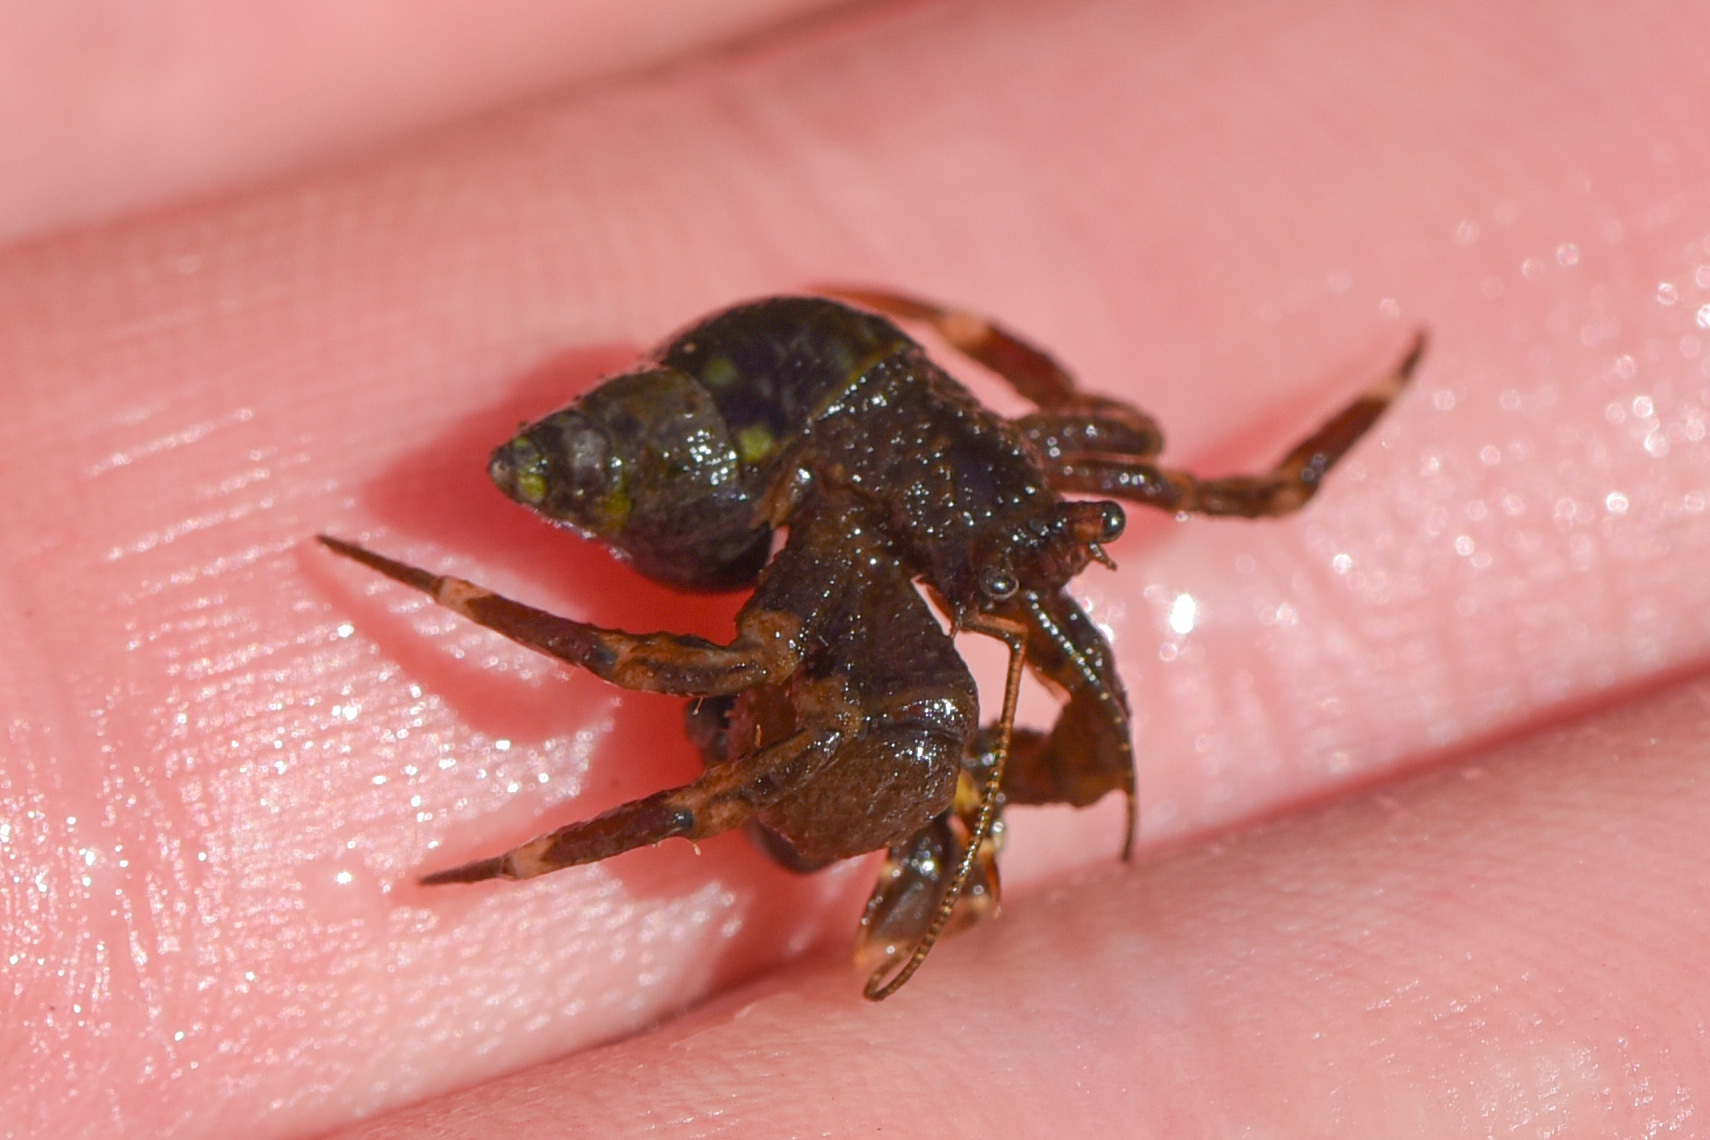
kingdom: Animalia
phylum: Arthropoda
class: Malacostraca
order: Decapoda
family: Paguridae
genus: Pagurus
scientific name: Pagurus hirsutiusculus
